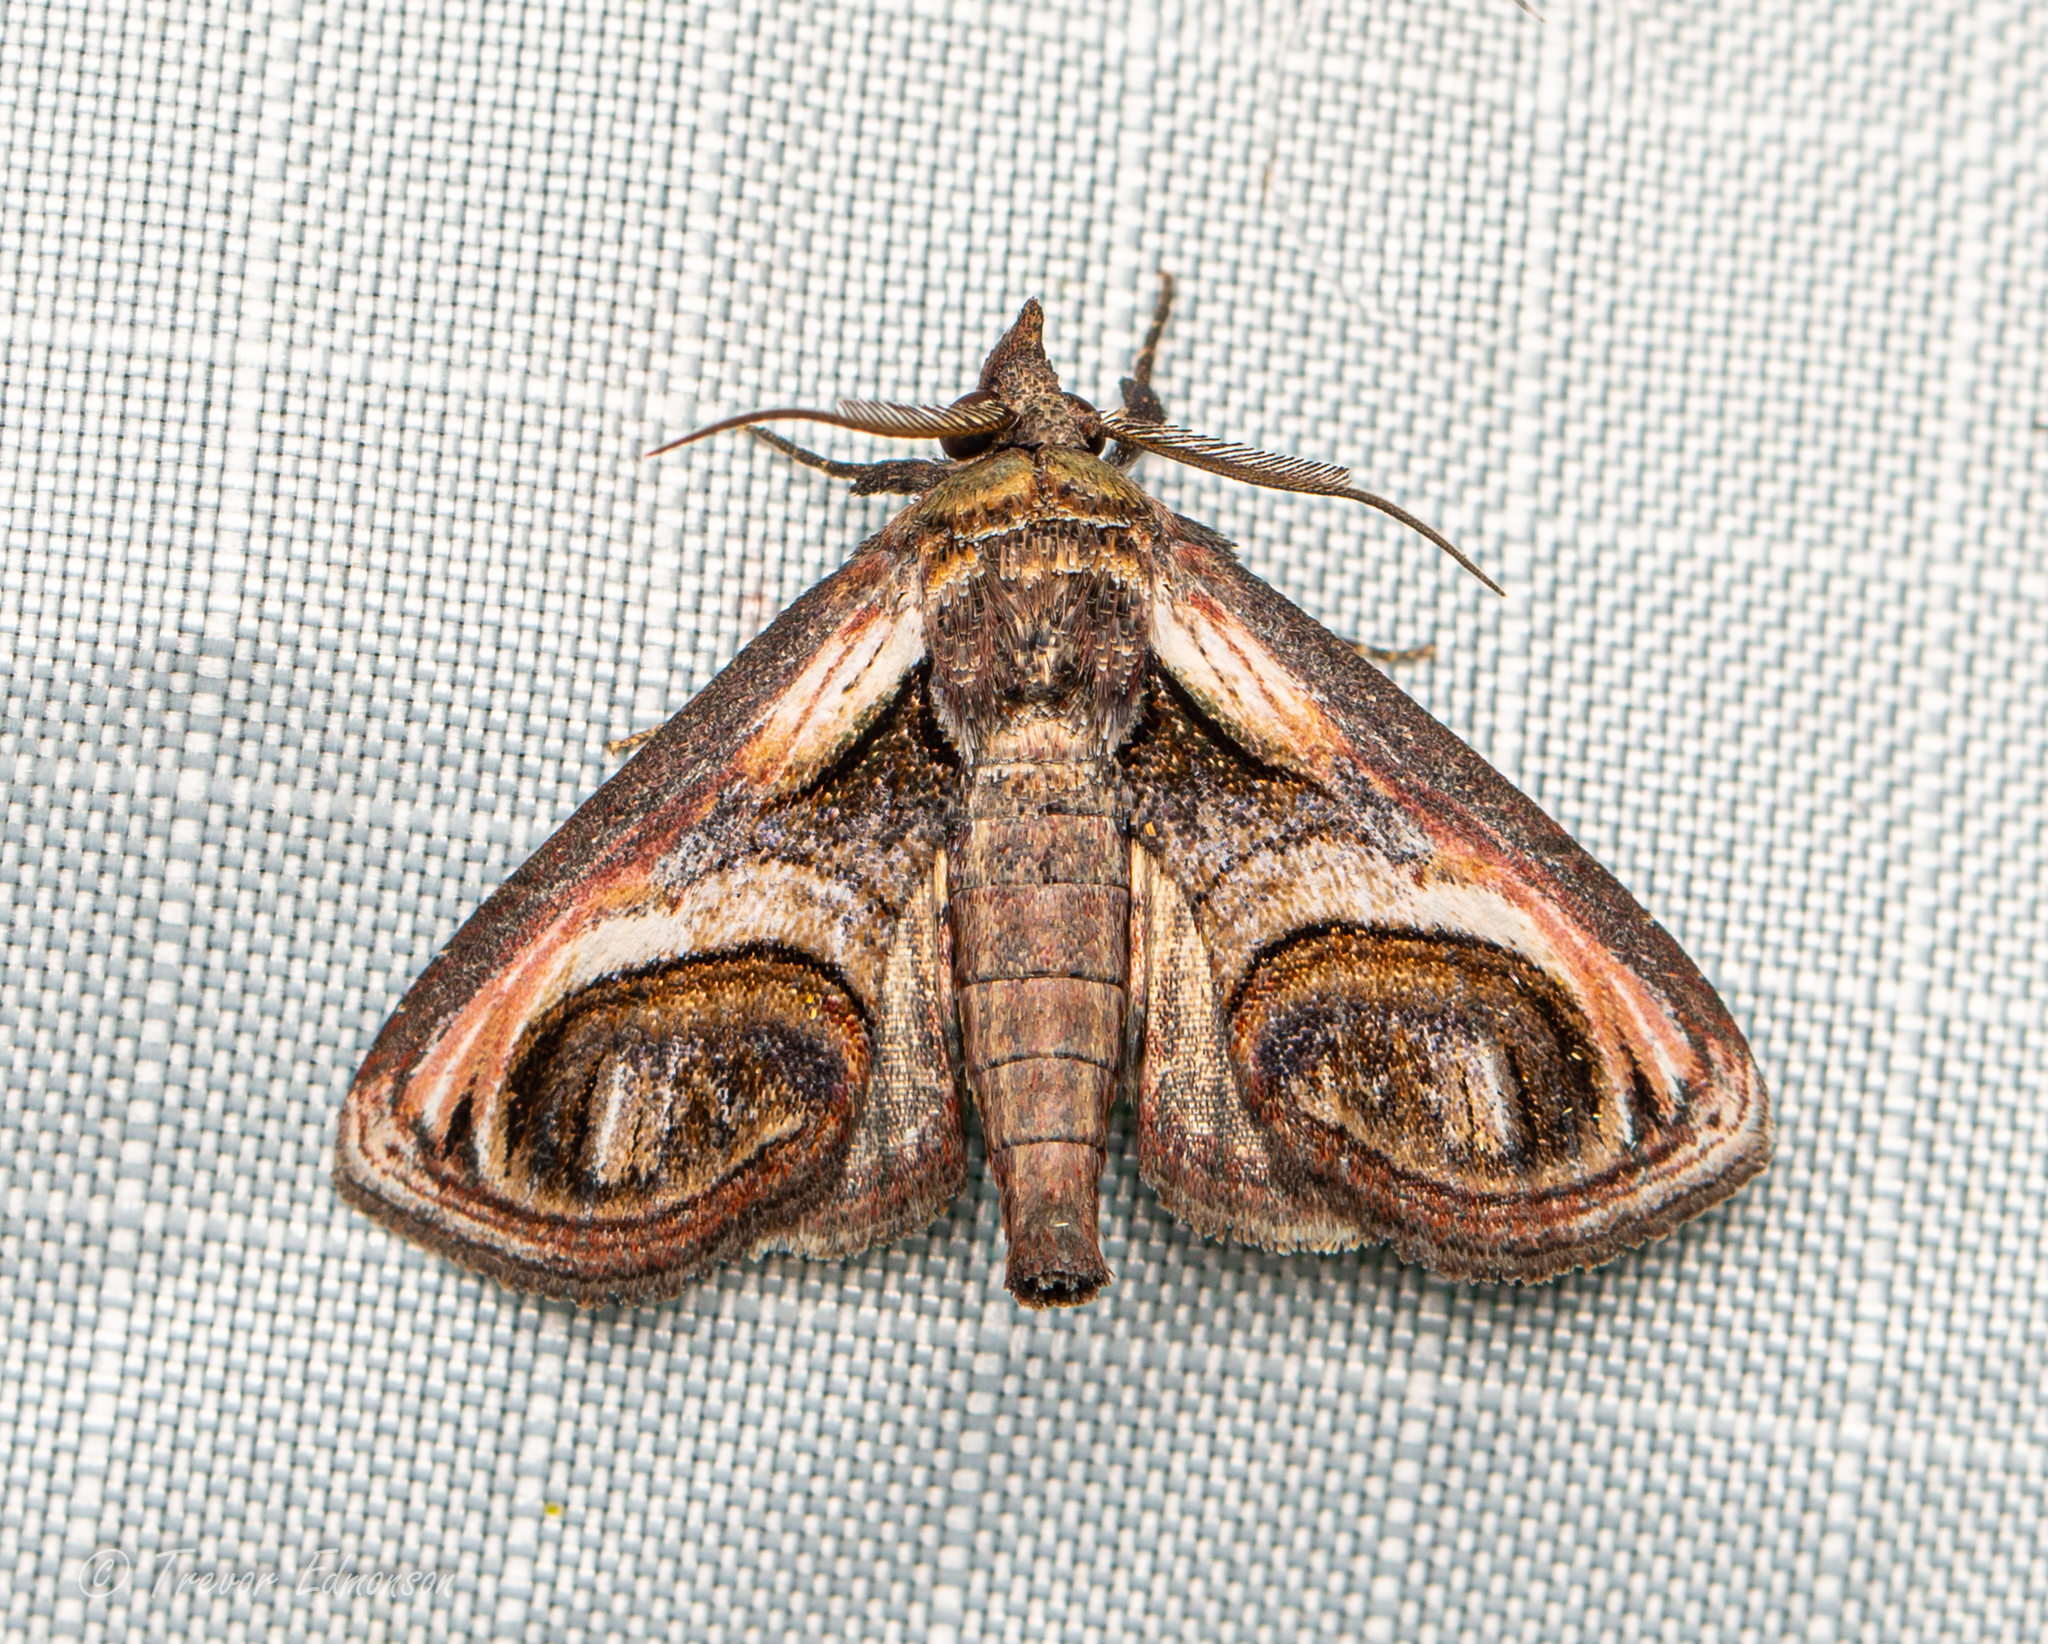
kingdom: Animalia
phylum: Arthropoda
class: Insecta
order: Lepidoptera
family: Euteliidae
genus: Paectes
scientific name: Paectes oculatrix
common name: Eyed paectes moth
